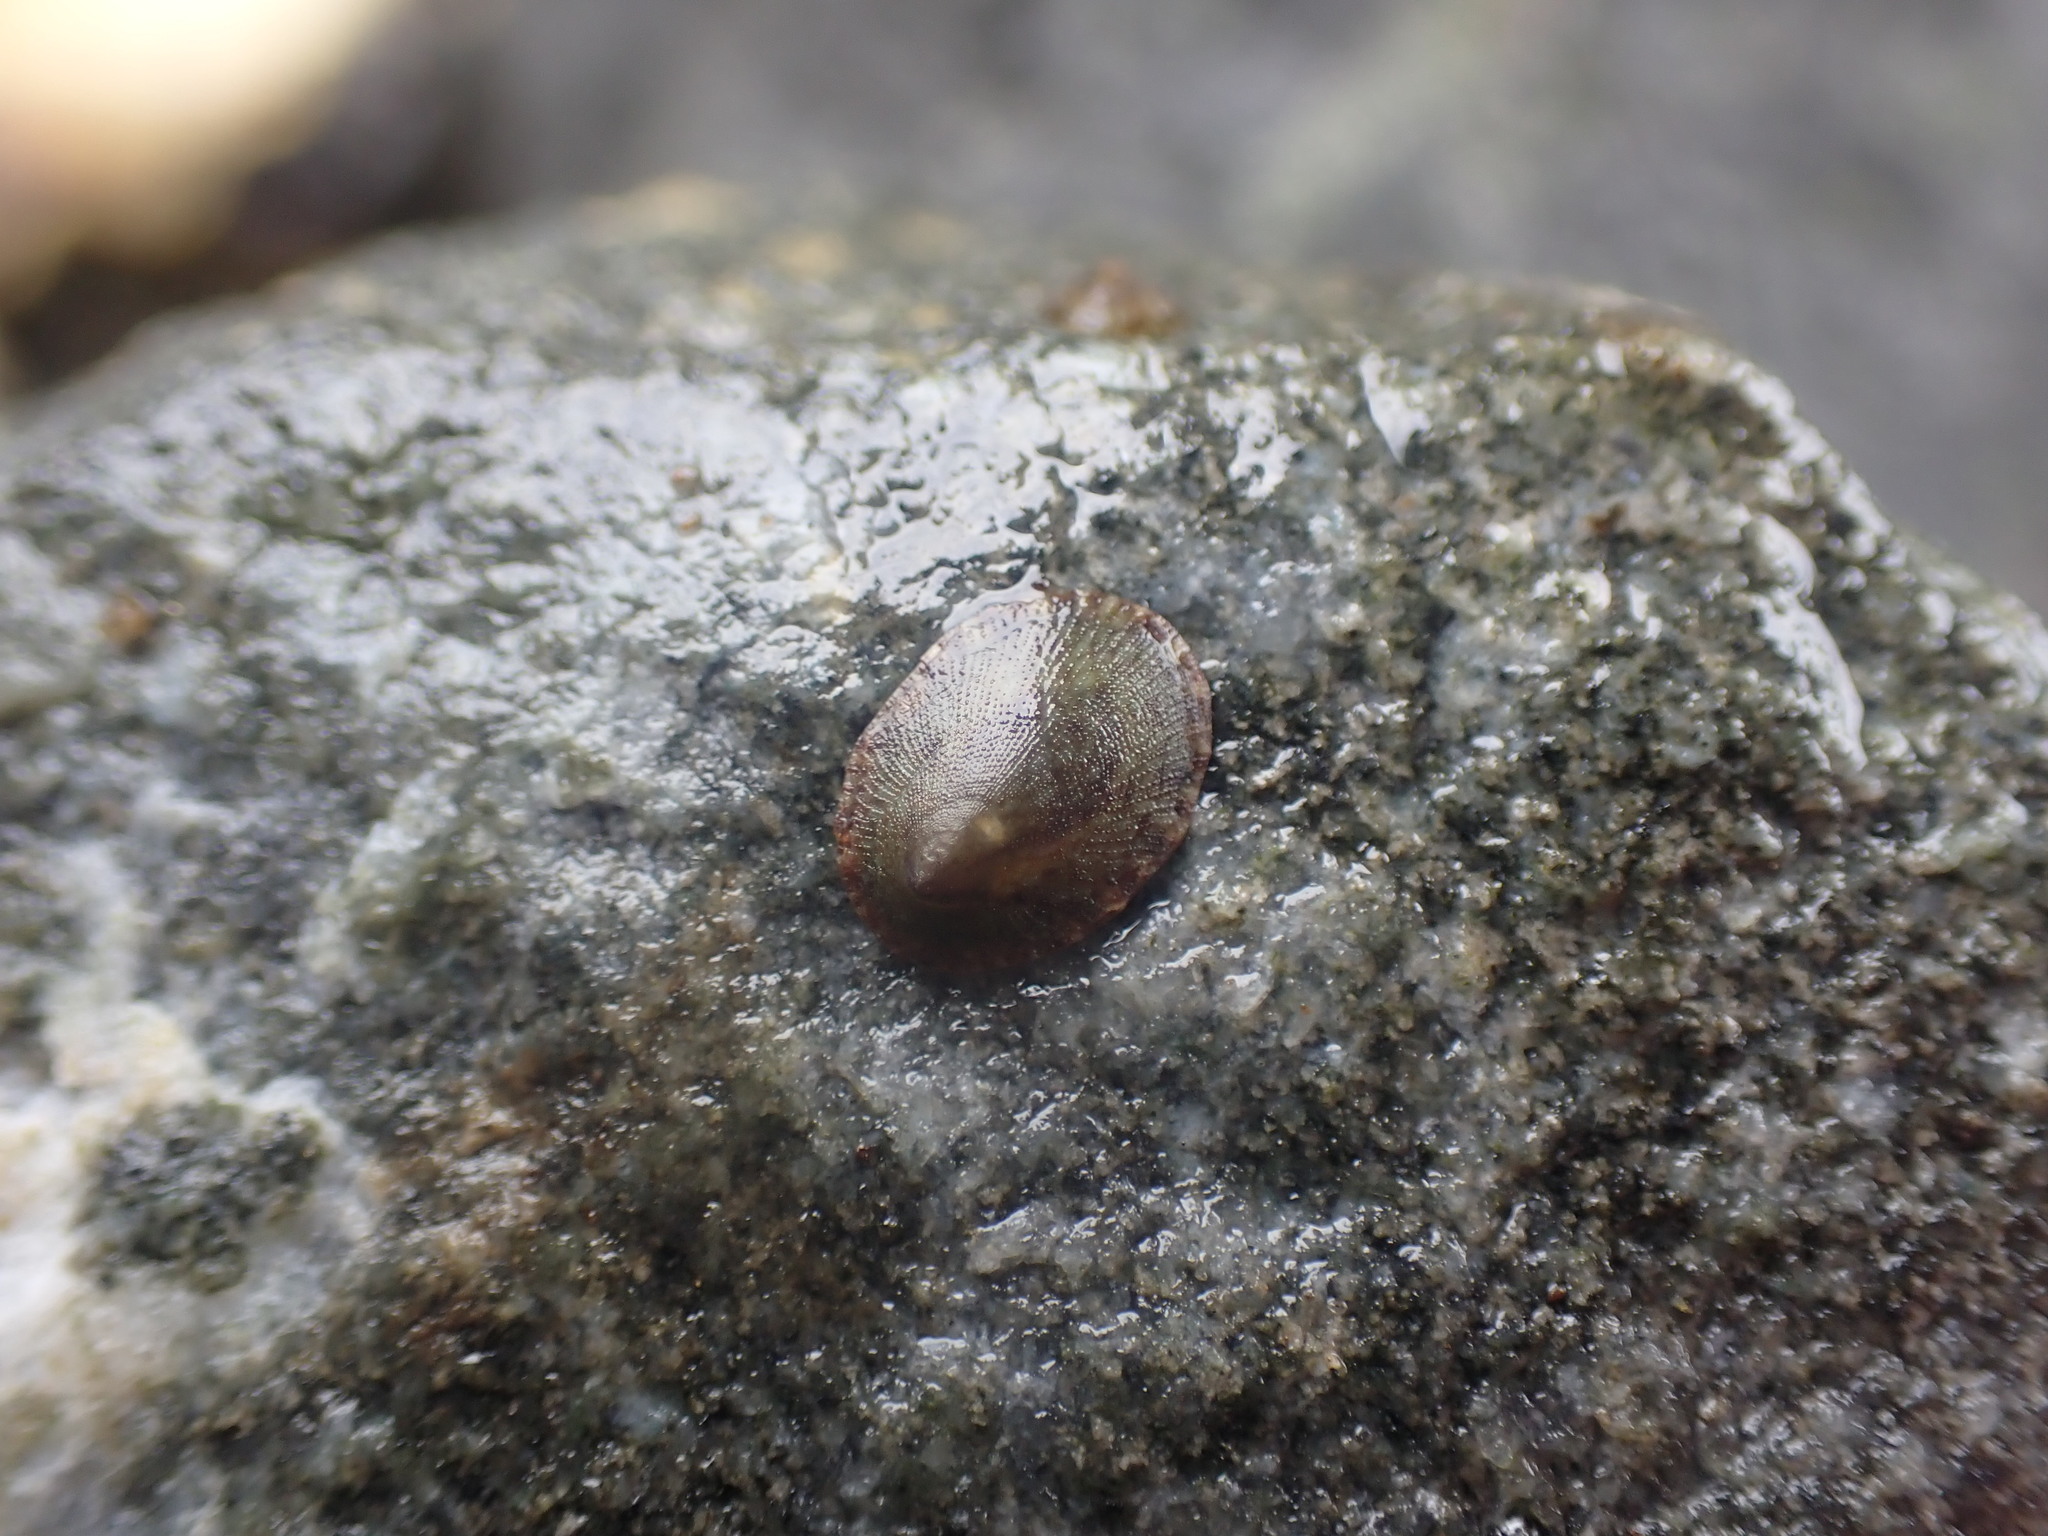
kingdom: Animalia
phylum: Mollusca
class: Gastropoda
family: Lottiidae
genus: Notoacmea
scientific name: Notoacmea
